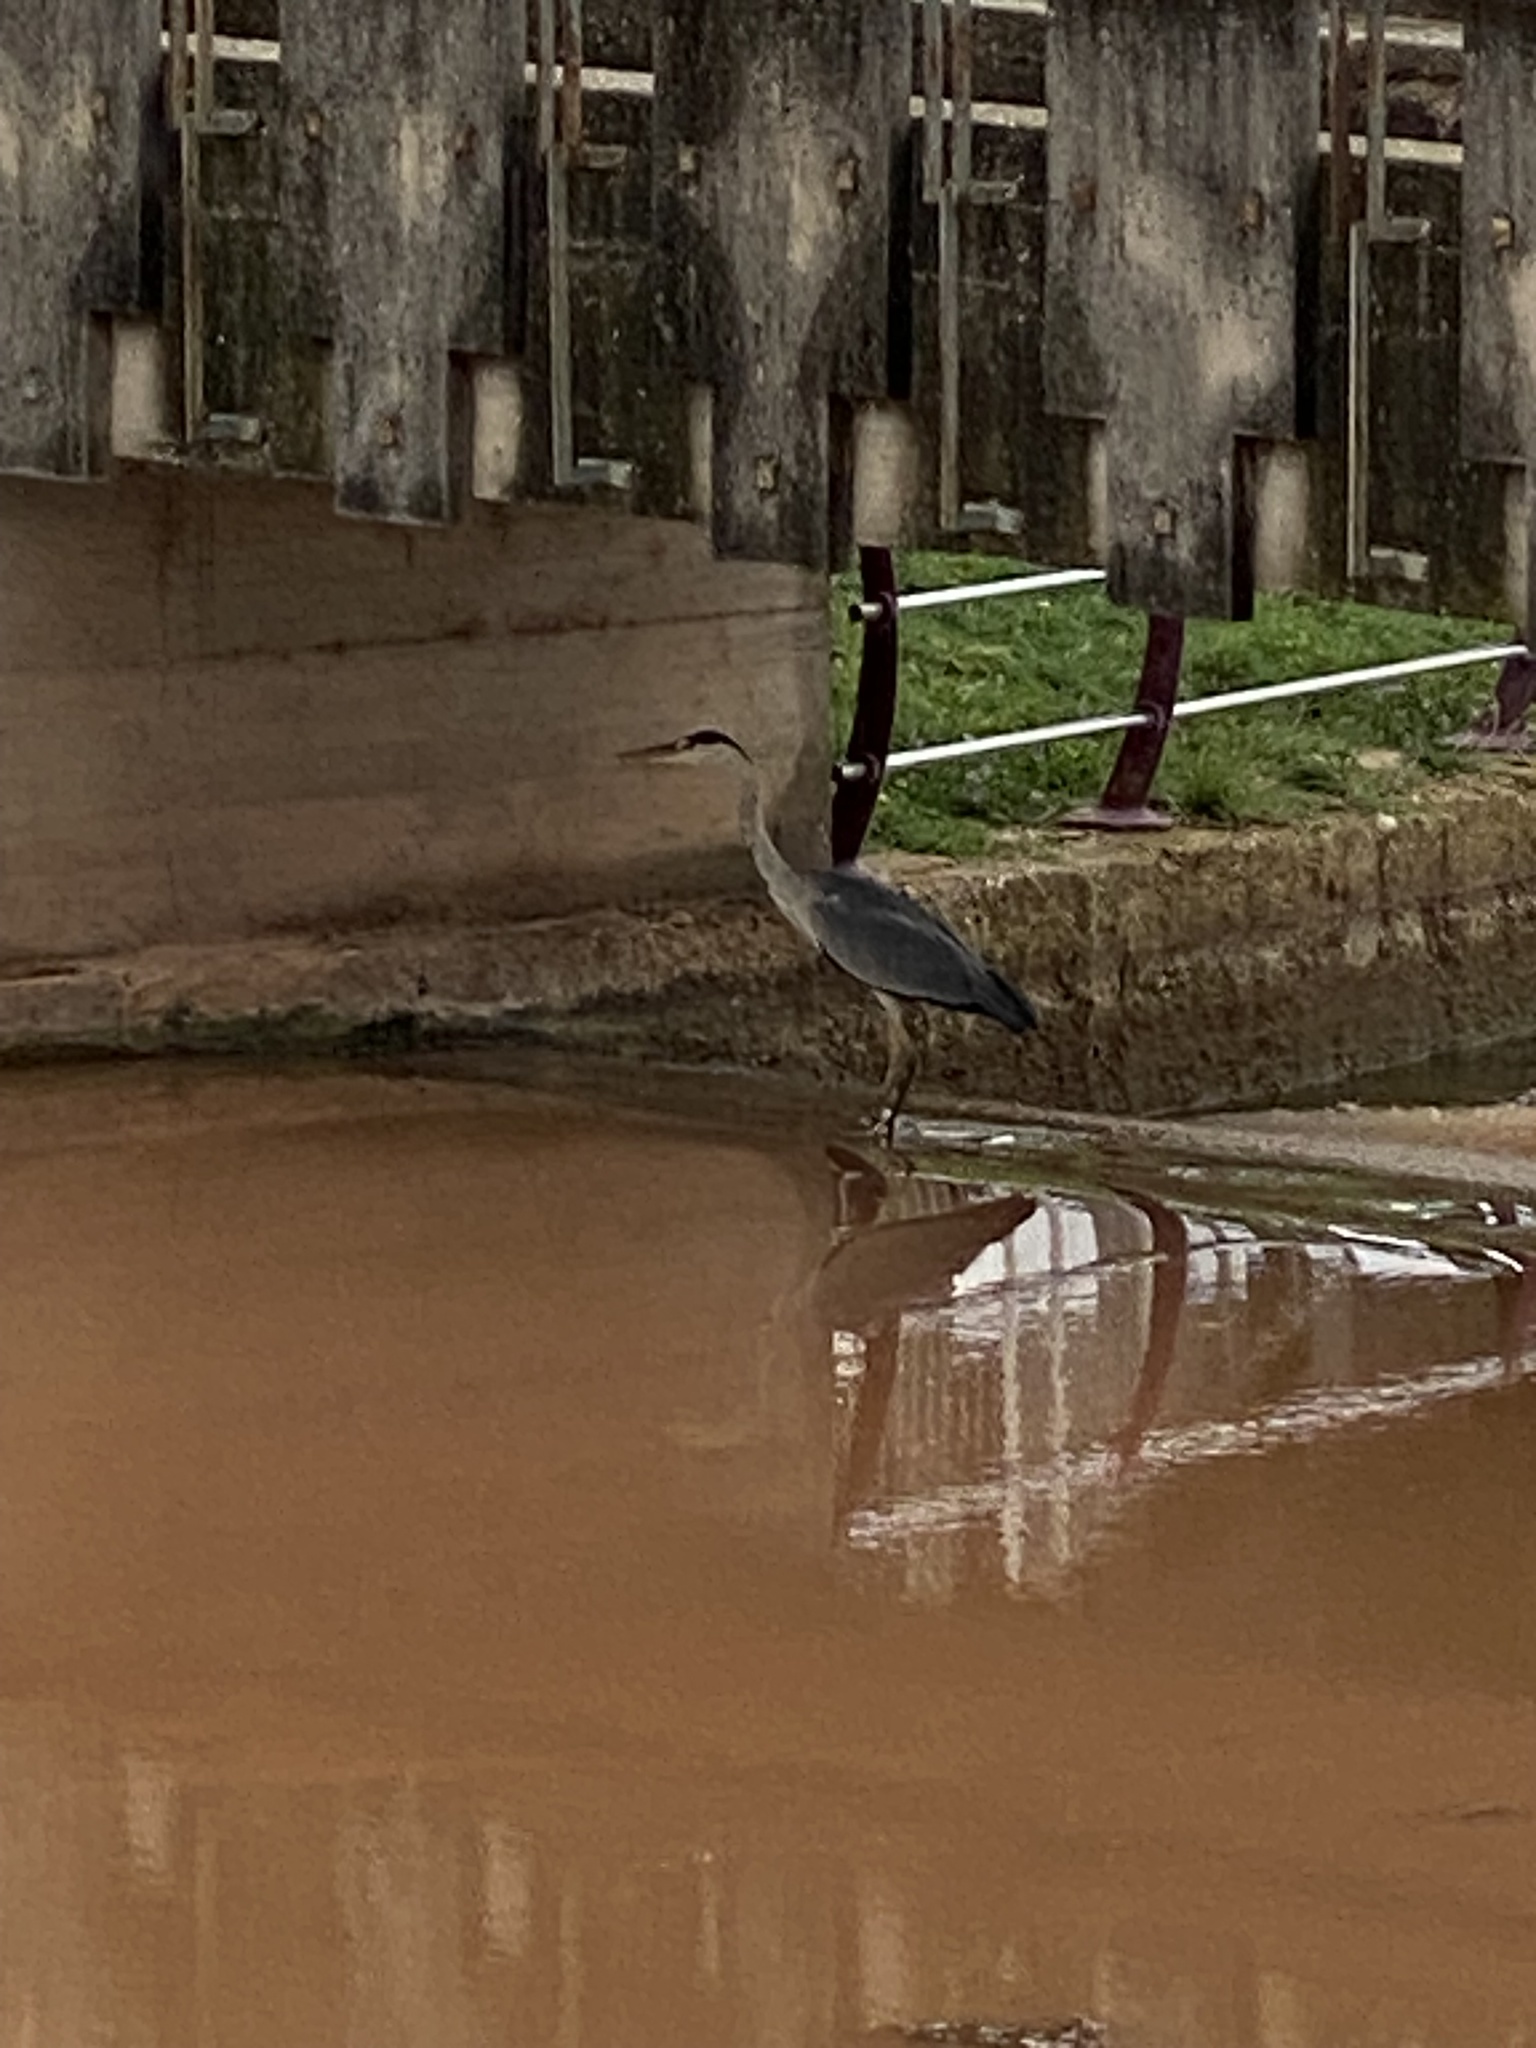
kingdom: Animalia
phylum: Chordata
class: Aves
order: Pelecaniformes
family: Ardeidae
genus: Ardea
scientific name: Ardea cinerea
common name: Grey heron
